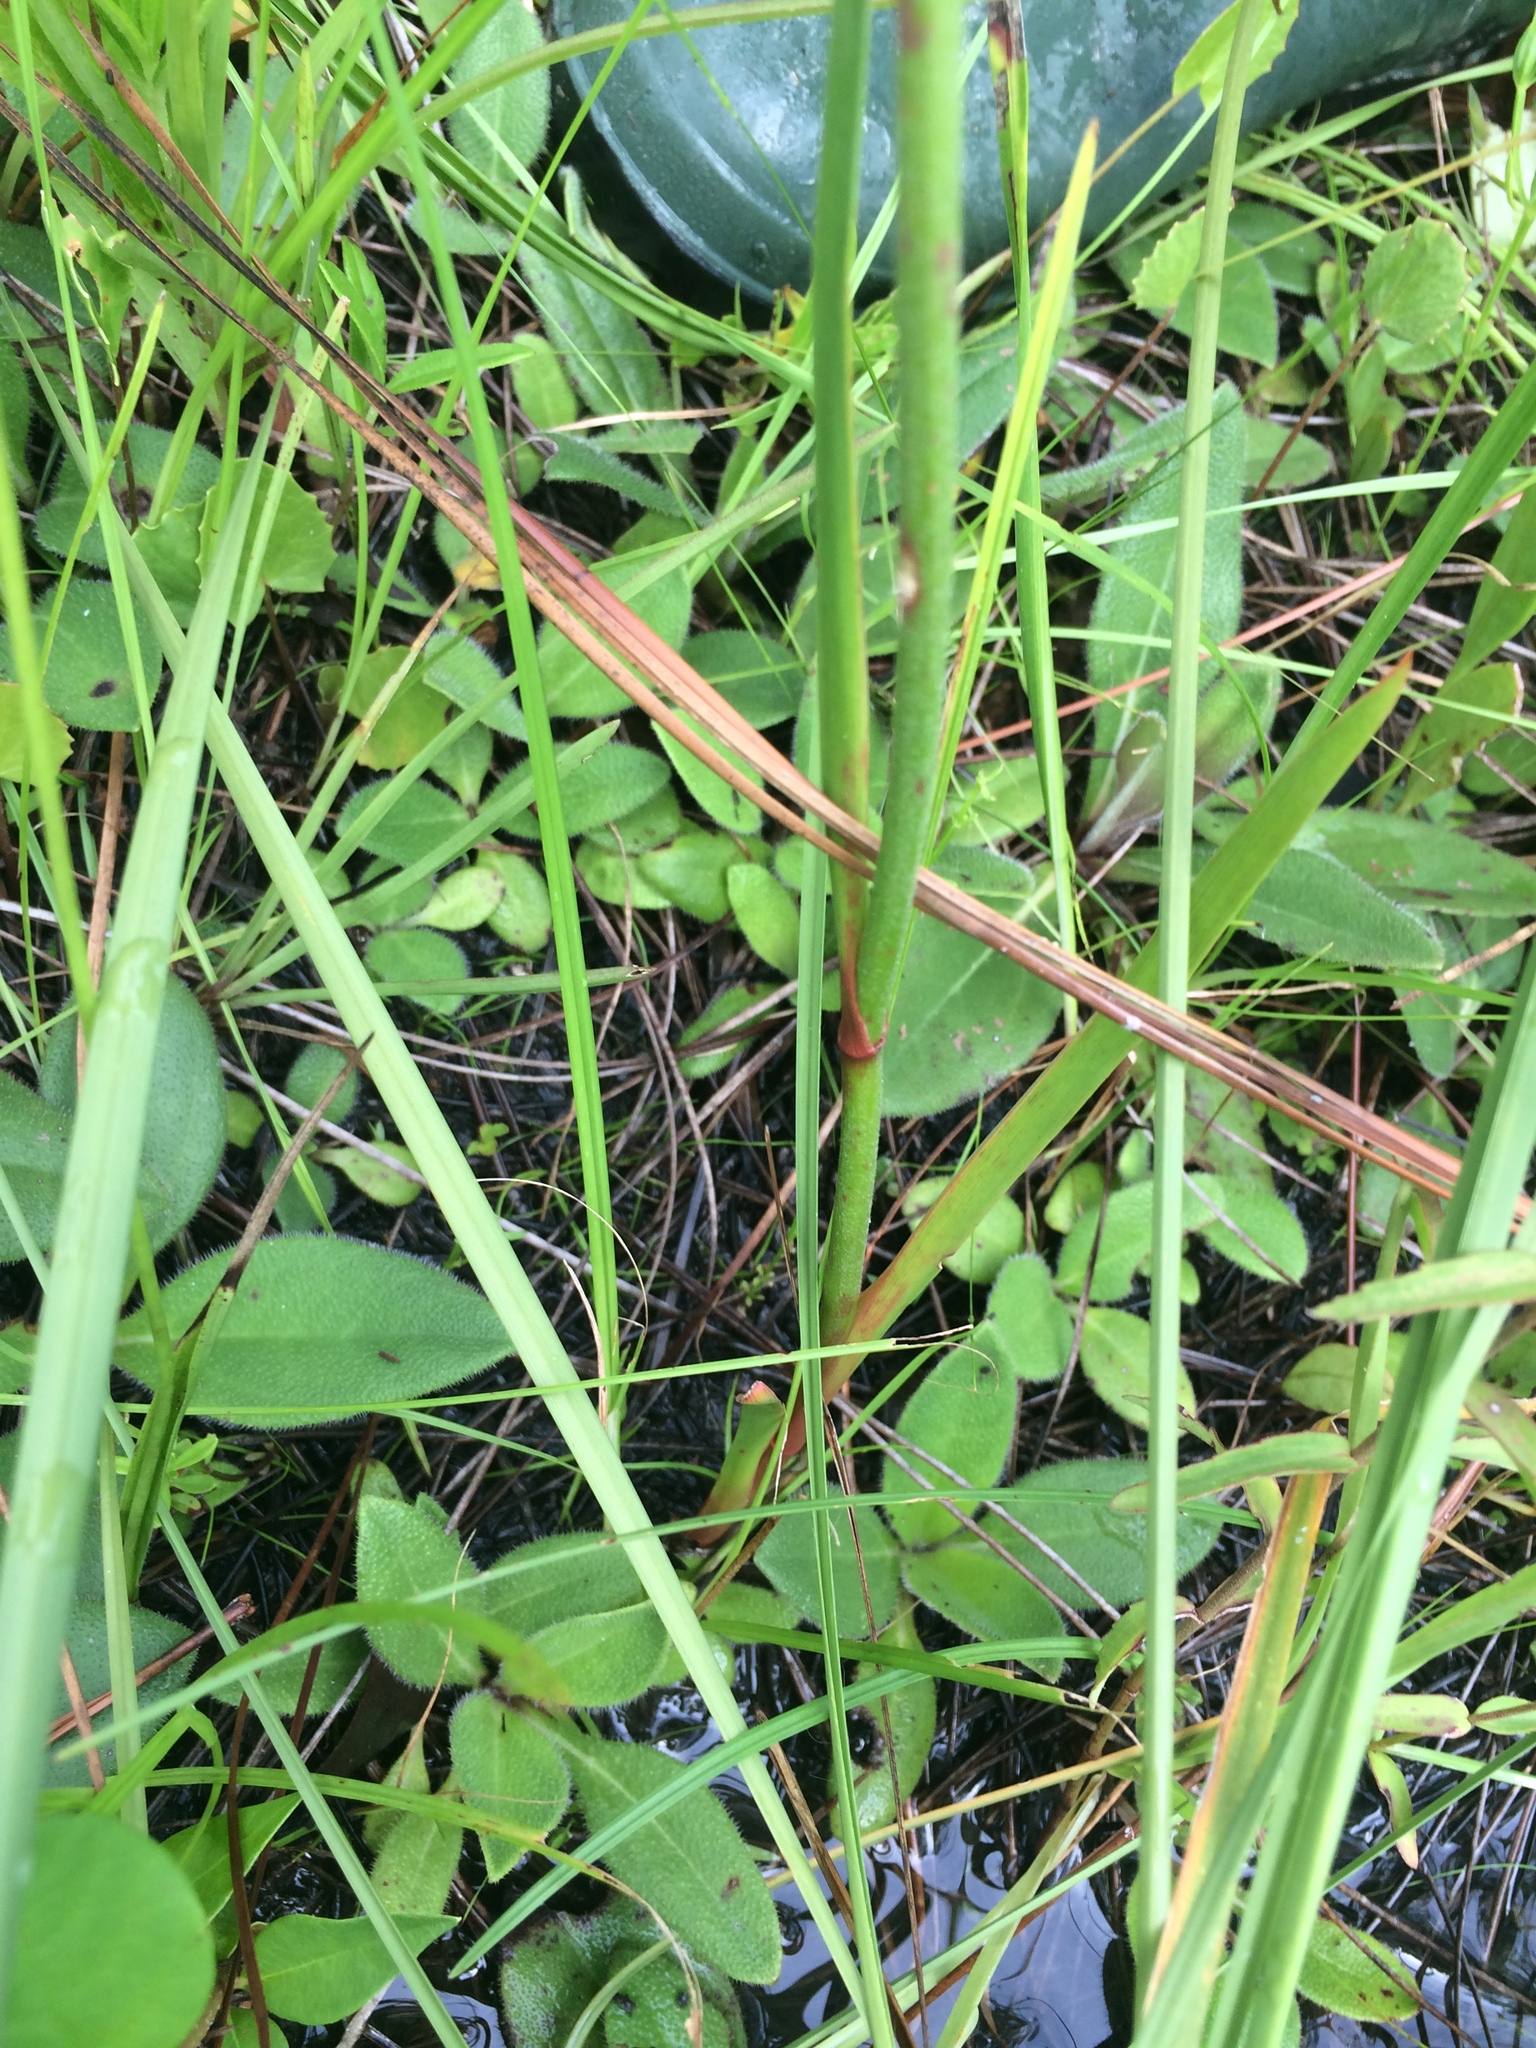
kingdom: Plantae
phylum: Tracheophyta
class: Liliopsida
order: Dioscoreales
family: Nartheciaceae
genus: Lophiola
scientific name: Lophiola aurea
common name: Golden-crest
